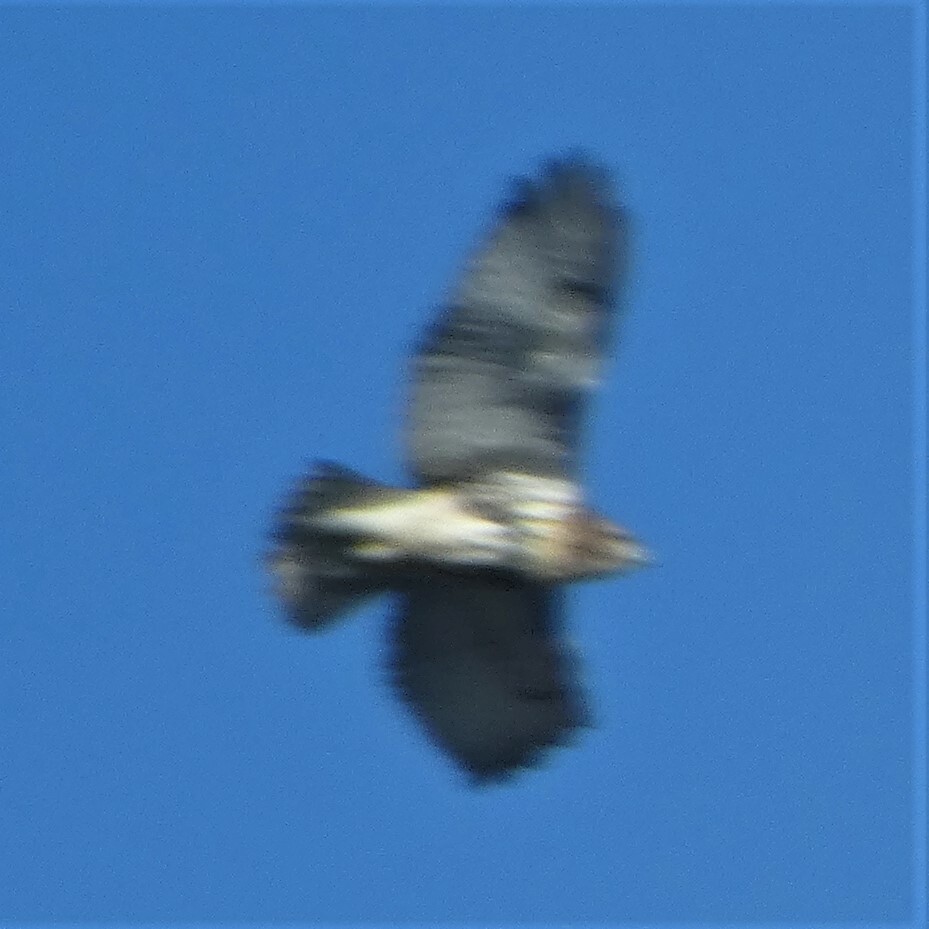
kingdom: Animalia
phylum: Chordata
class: Aves
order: Accipitriformes
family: Accipitridae
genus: Buteo
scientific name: Buteo jamaicensis
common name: Red-tailed hawk
